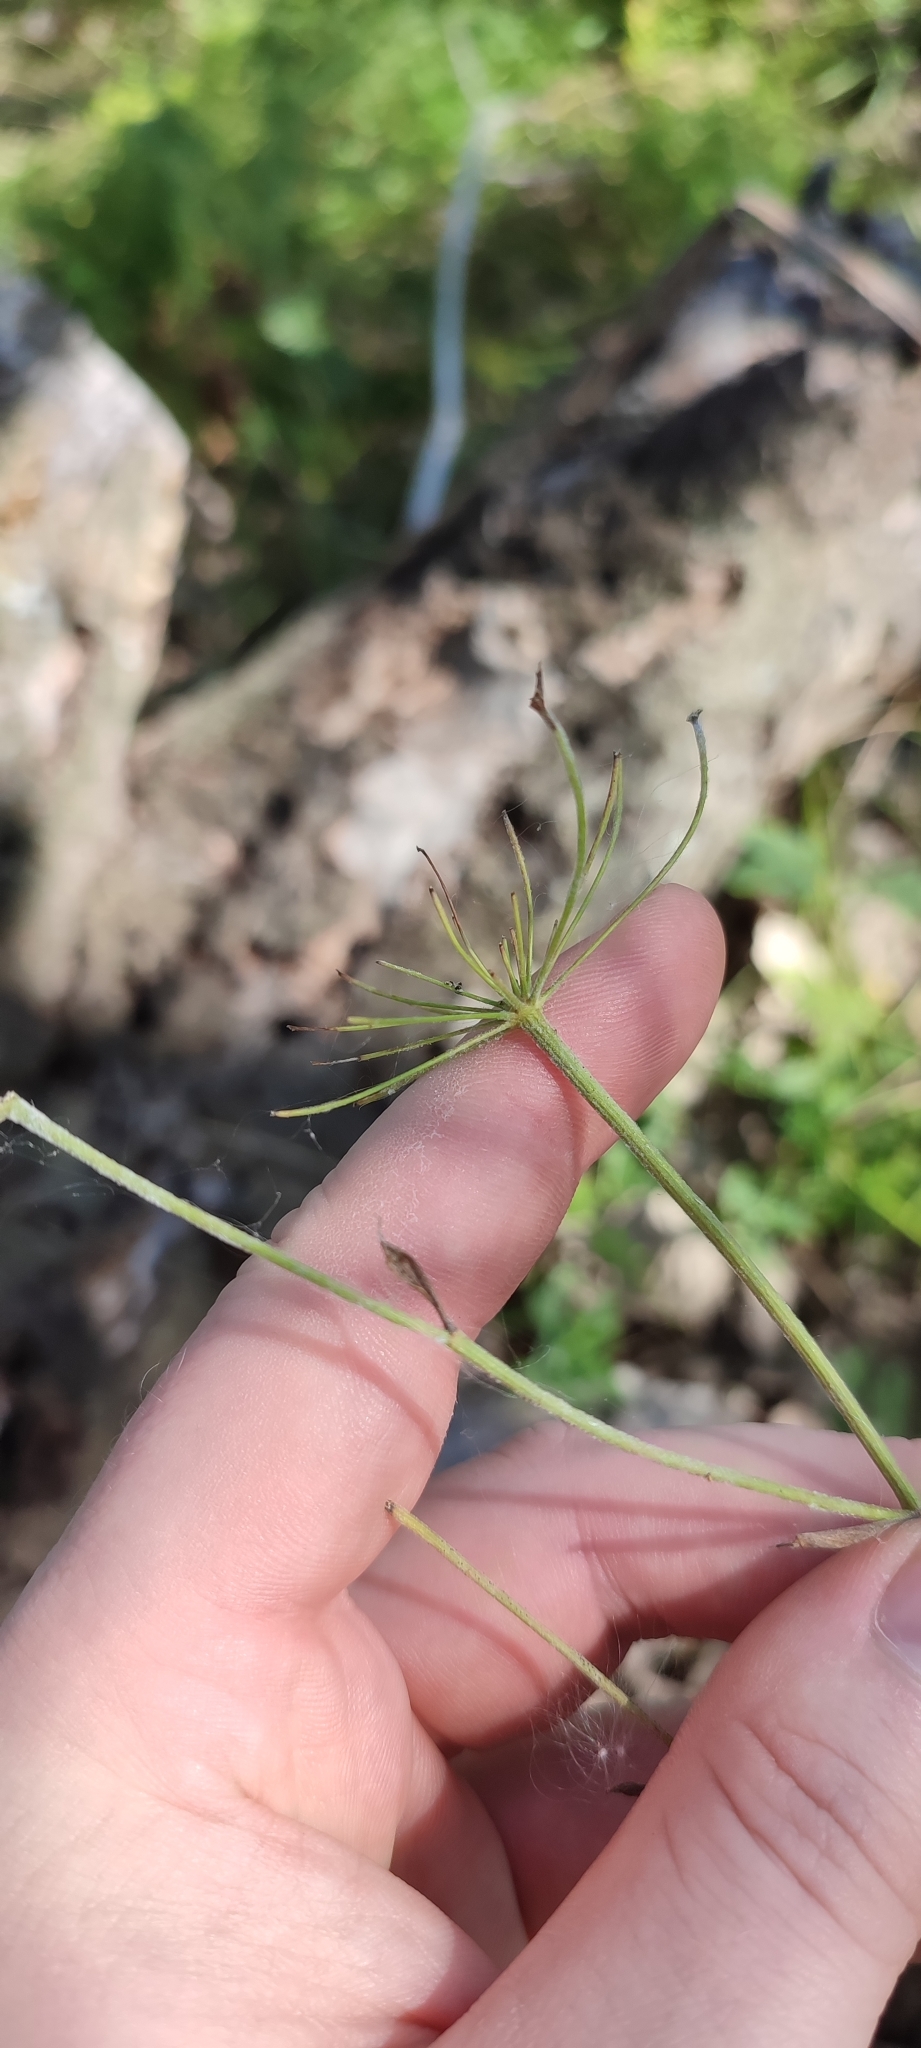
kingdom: Plantae
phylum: Tracheophyta
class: Magnoliopsida
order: Apiales
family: Apiaceae
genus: Pimpinella
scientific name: Pimpinella saxifraga
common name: Burnet-saxifrage
